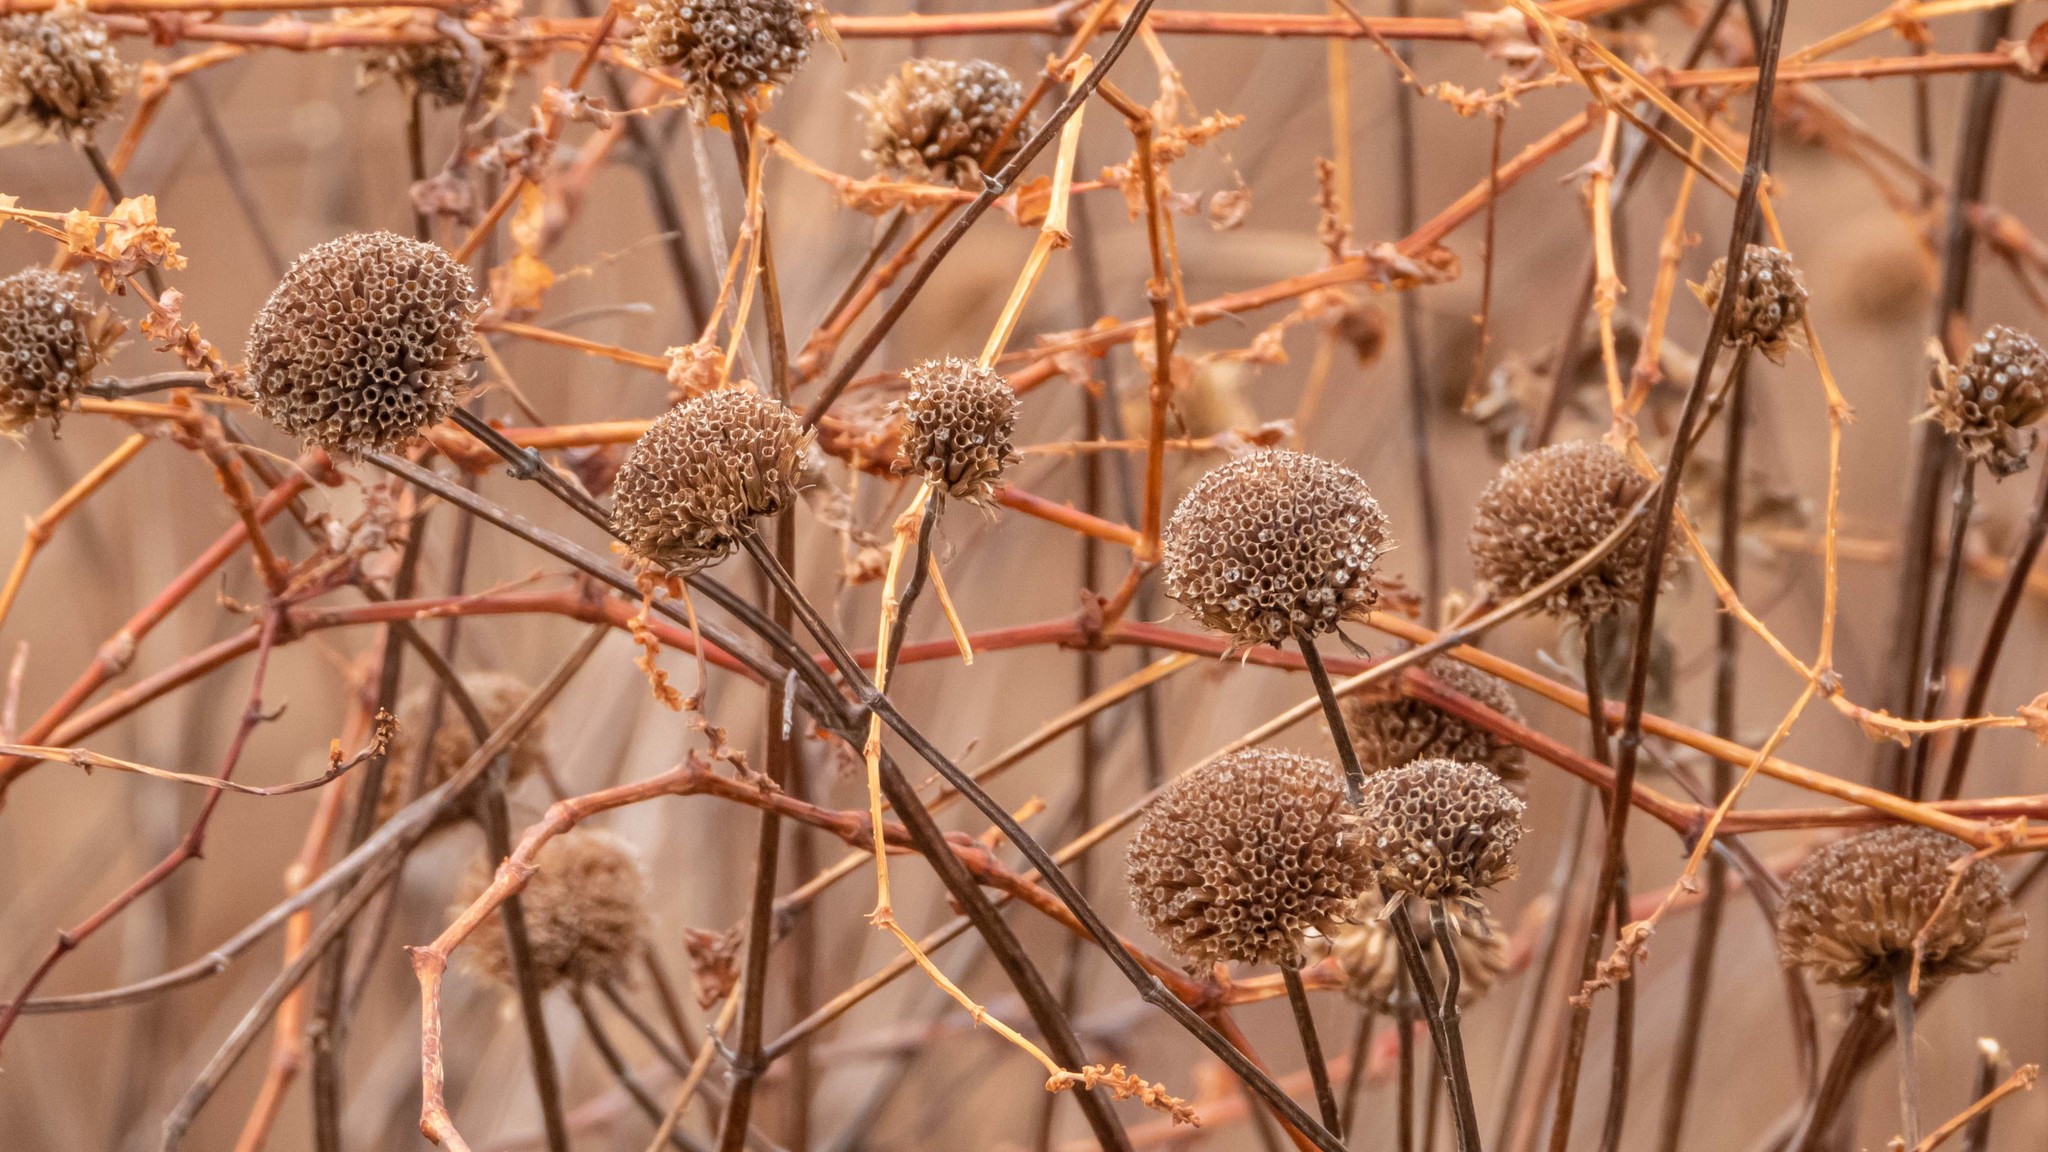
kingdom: Plantae
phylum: Tracheophyta
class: Magnoliopsida
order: Lamiales
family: Lamiaceae
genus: Monarda
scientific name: Monarda fistulosa
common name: Purple beebalm
